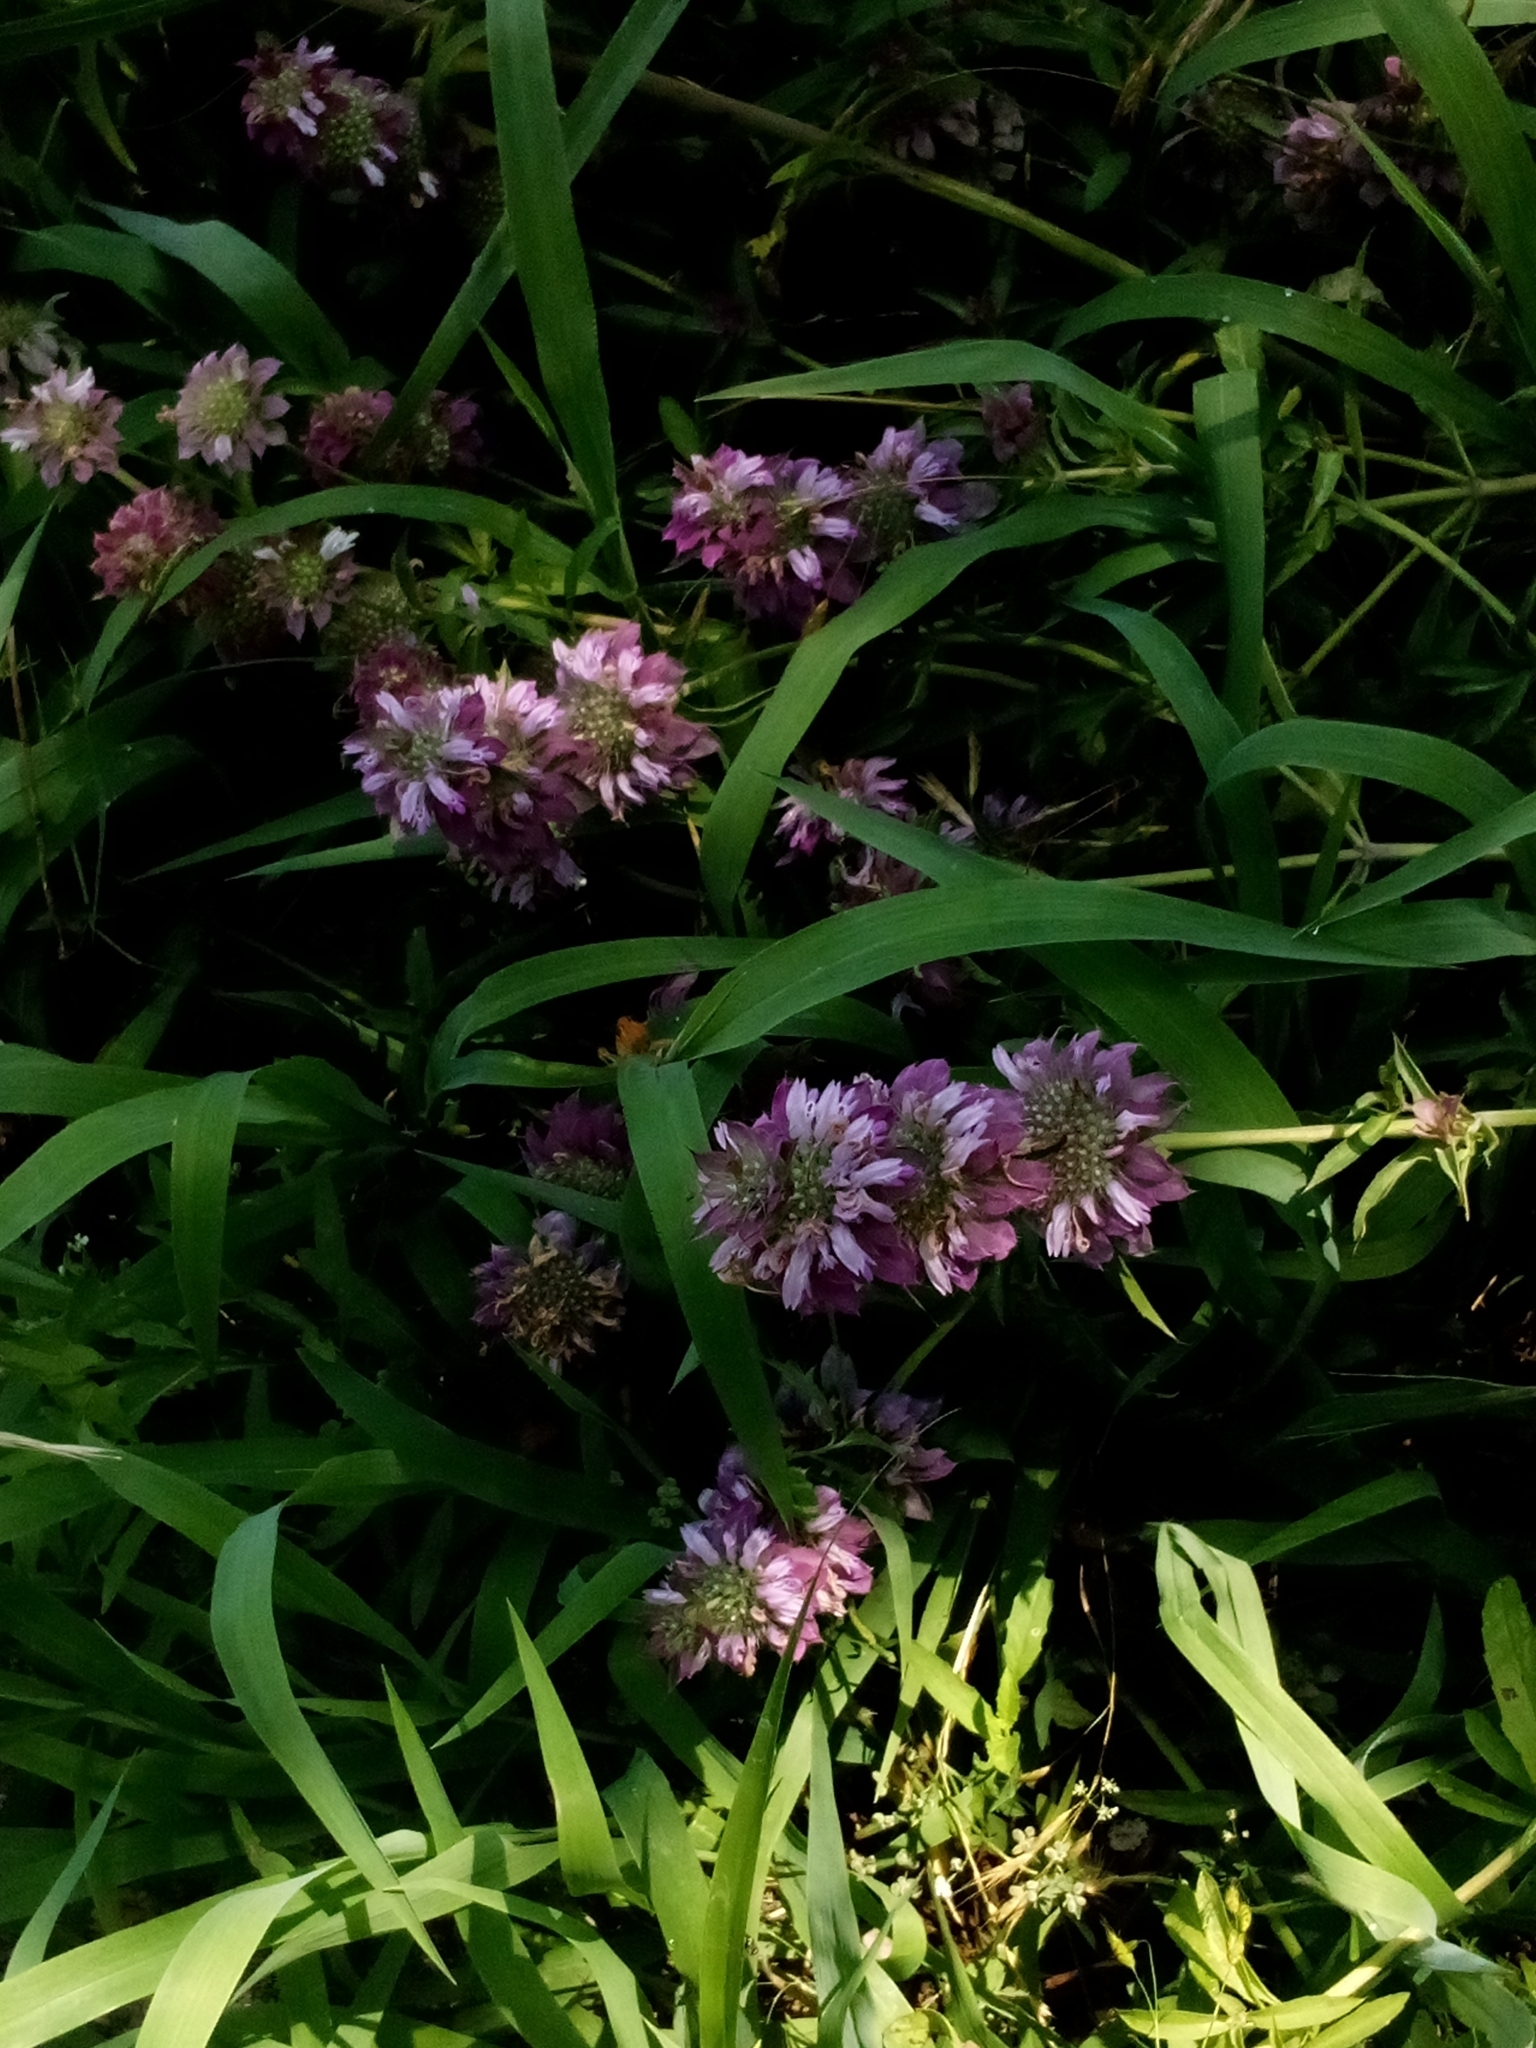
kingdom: Plantae
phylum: Tracheophyta
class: Magnoliopsida
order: Lamiales
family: Lamiaceae
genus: Monarda
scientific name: Monarda citriodora
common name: Lemon beebalm
